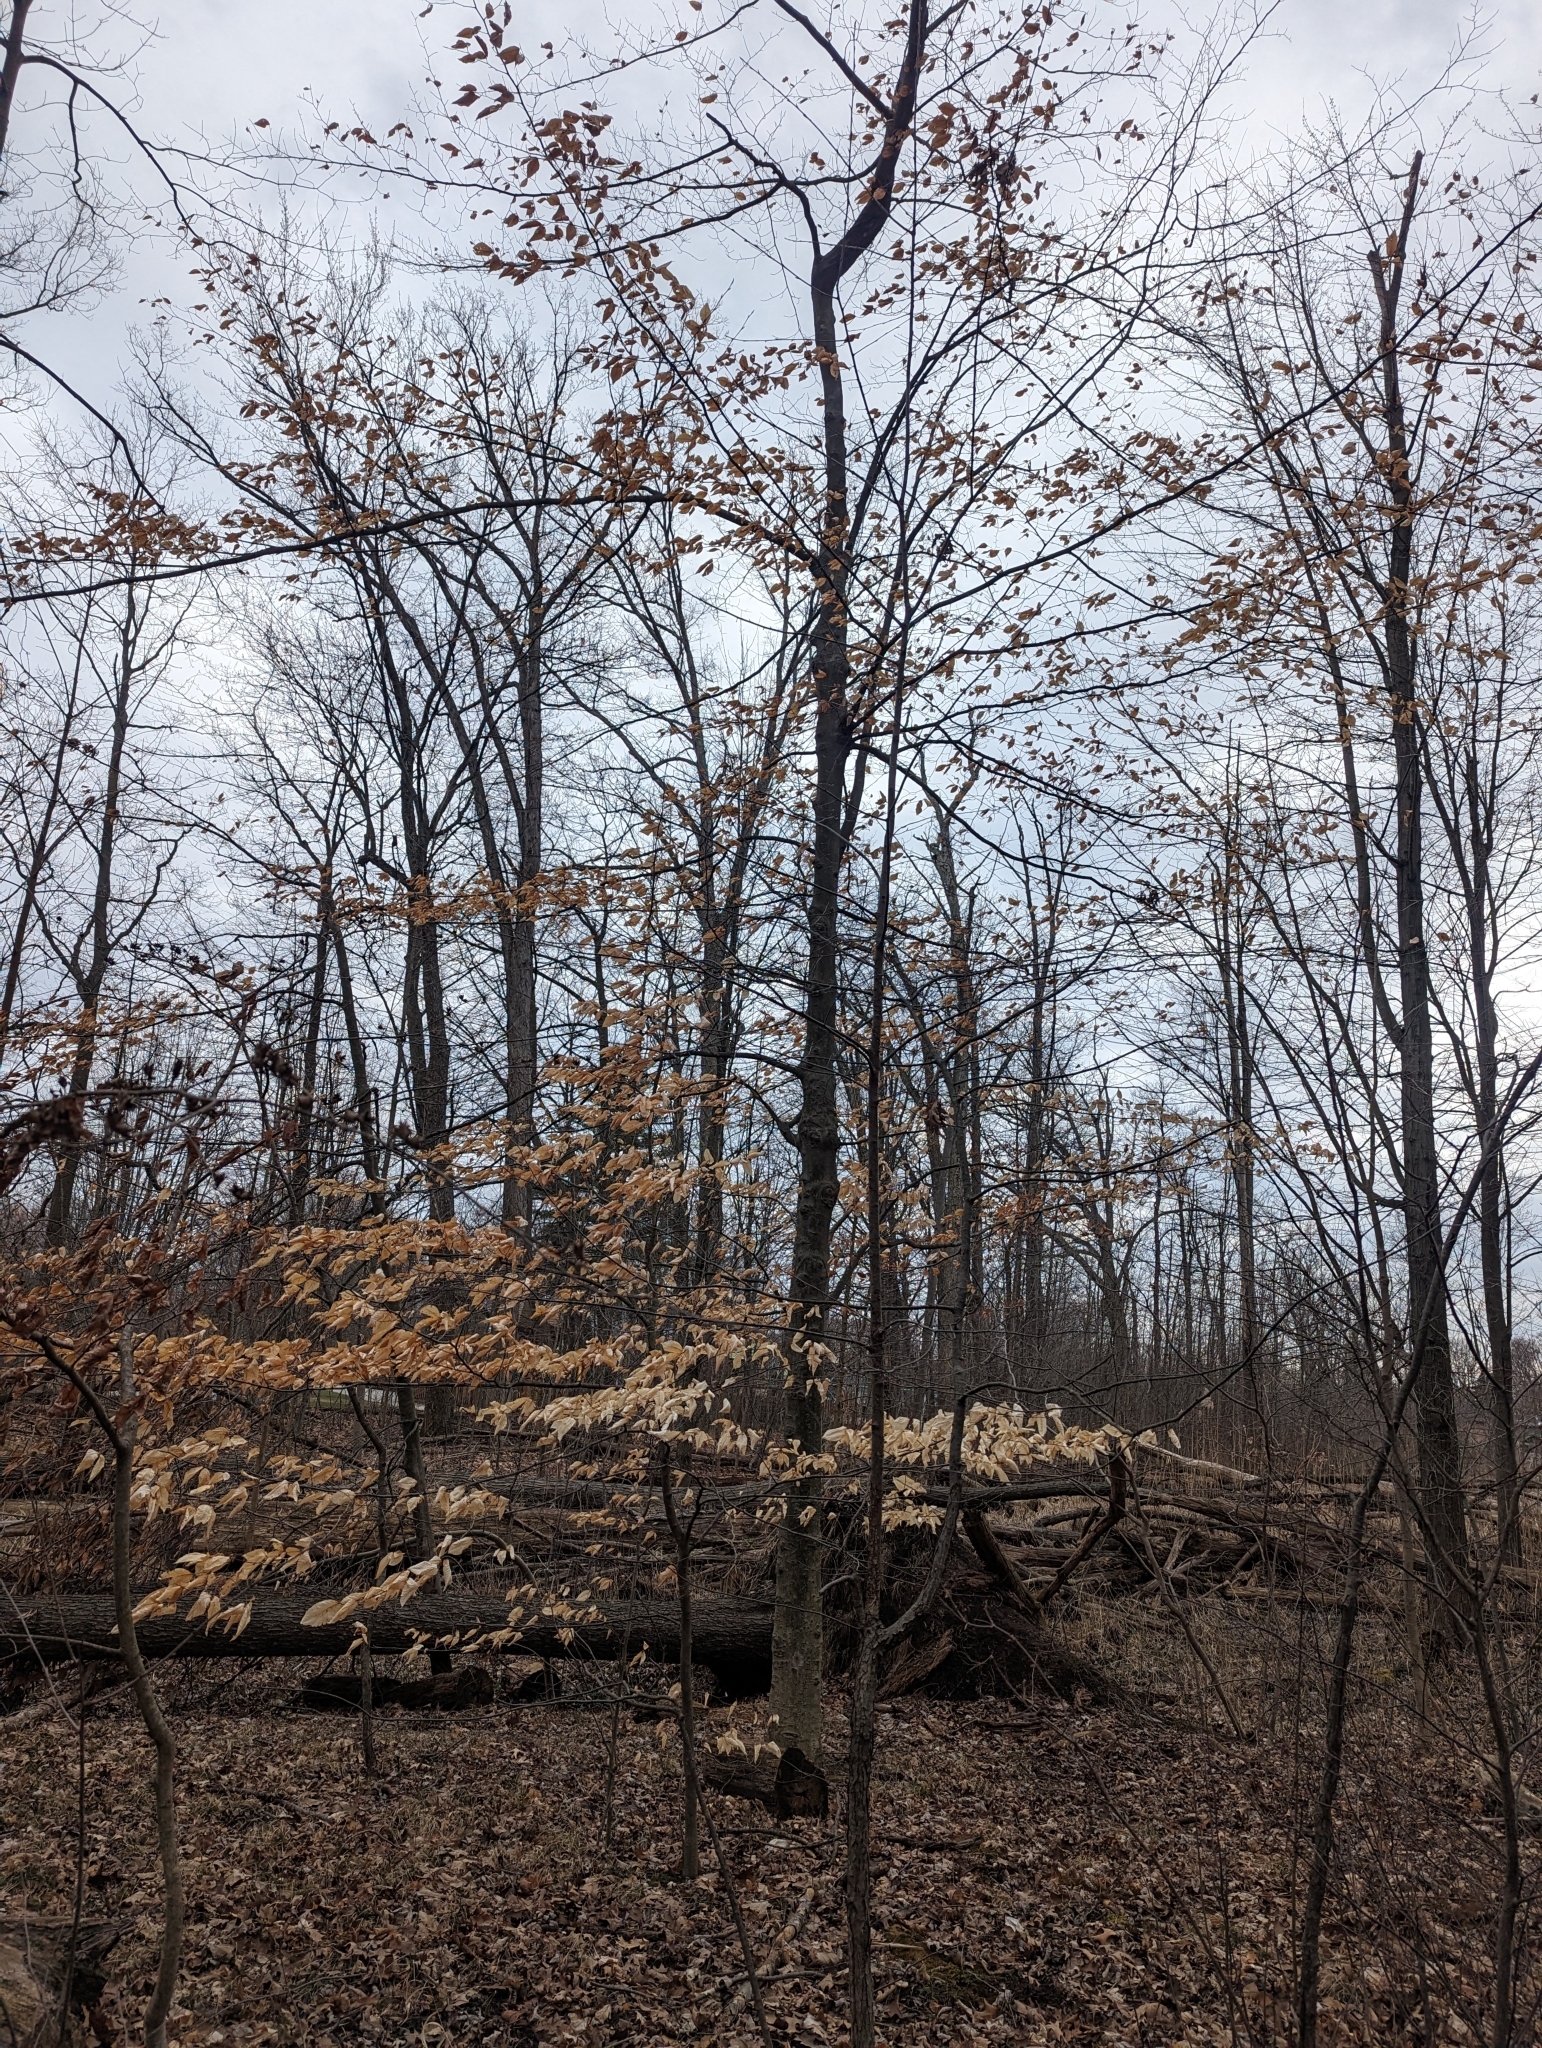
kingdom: Plantae
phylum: Tracheophyta
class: Magnoliopsida
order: Fagales
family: Fagaceae
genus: Fagus
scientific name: Fagus grandifolia
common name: American beech
